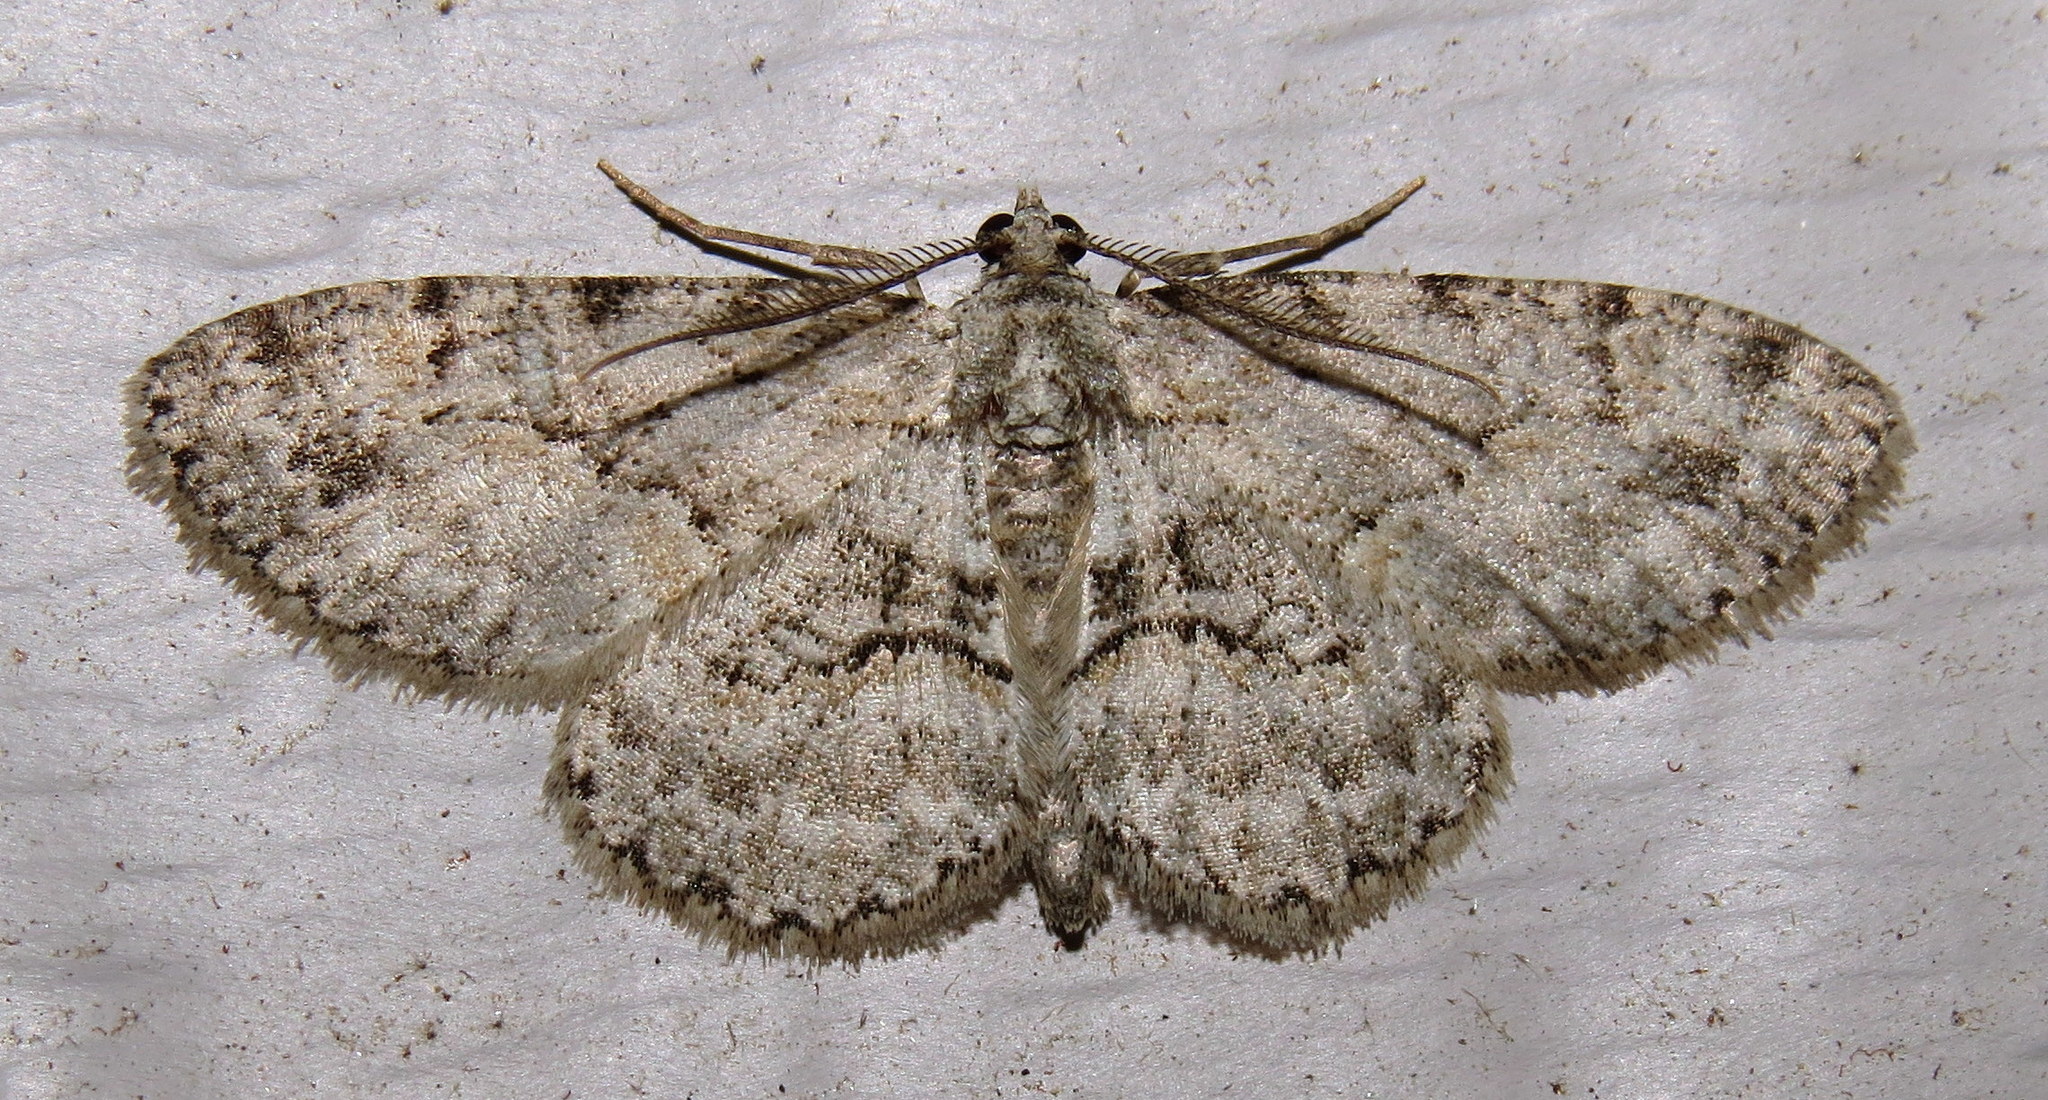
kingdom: Animalia
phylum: Arthropoda
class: Insecta
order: Lepidoptera
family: Geometridae
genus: Iridopsis
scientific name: Iridopsis ephyraria
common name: Pale-winged gray
